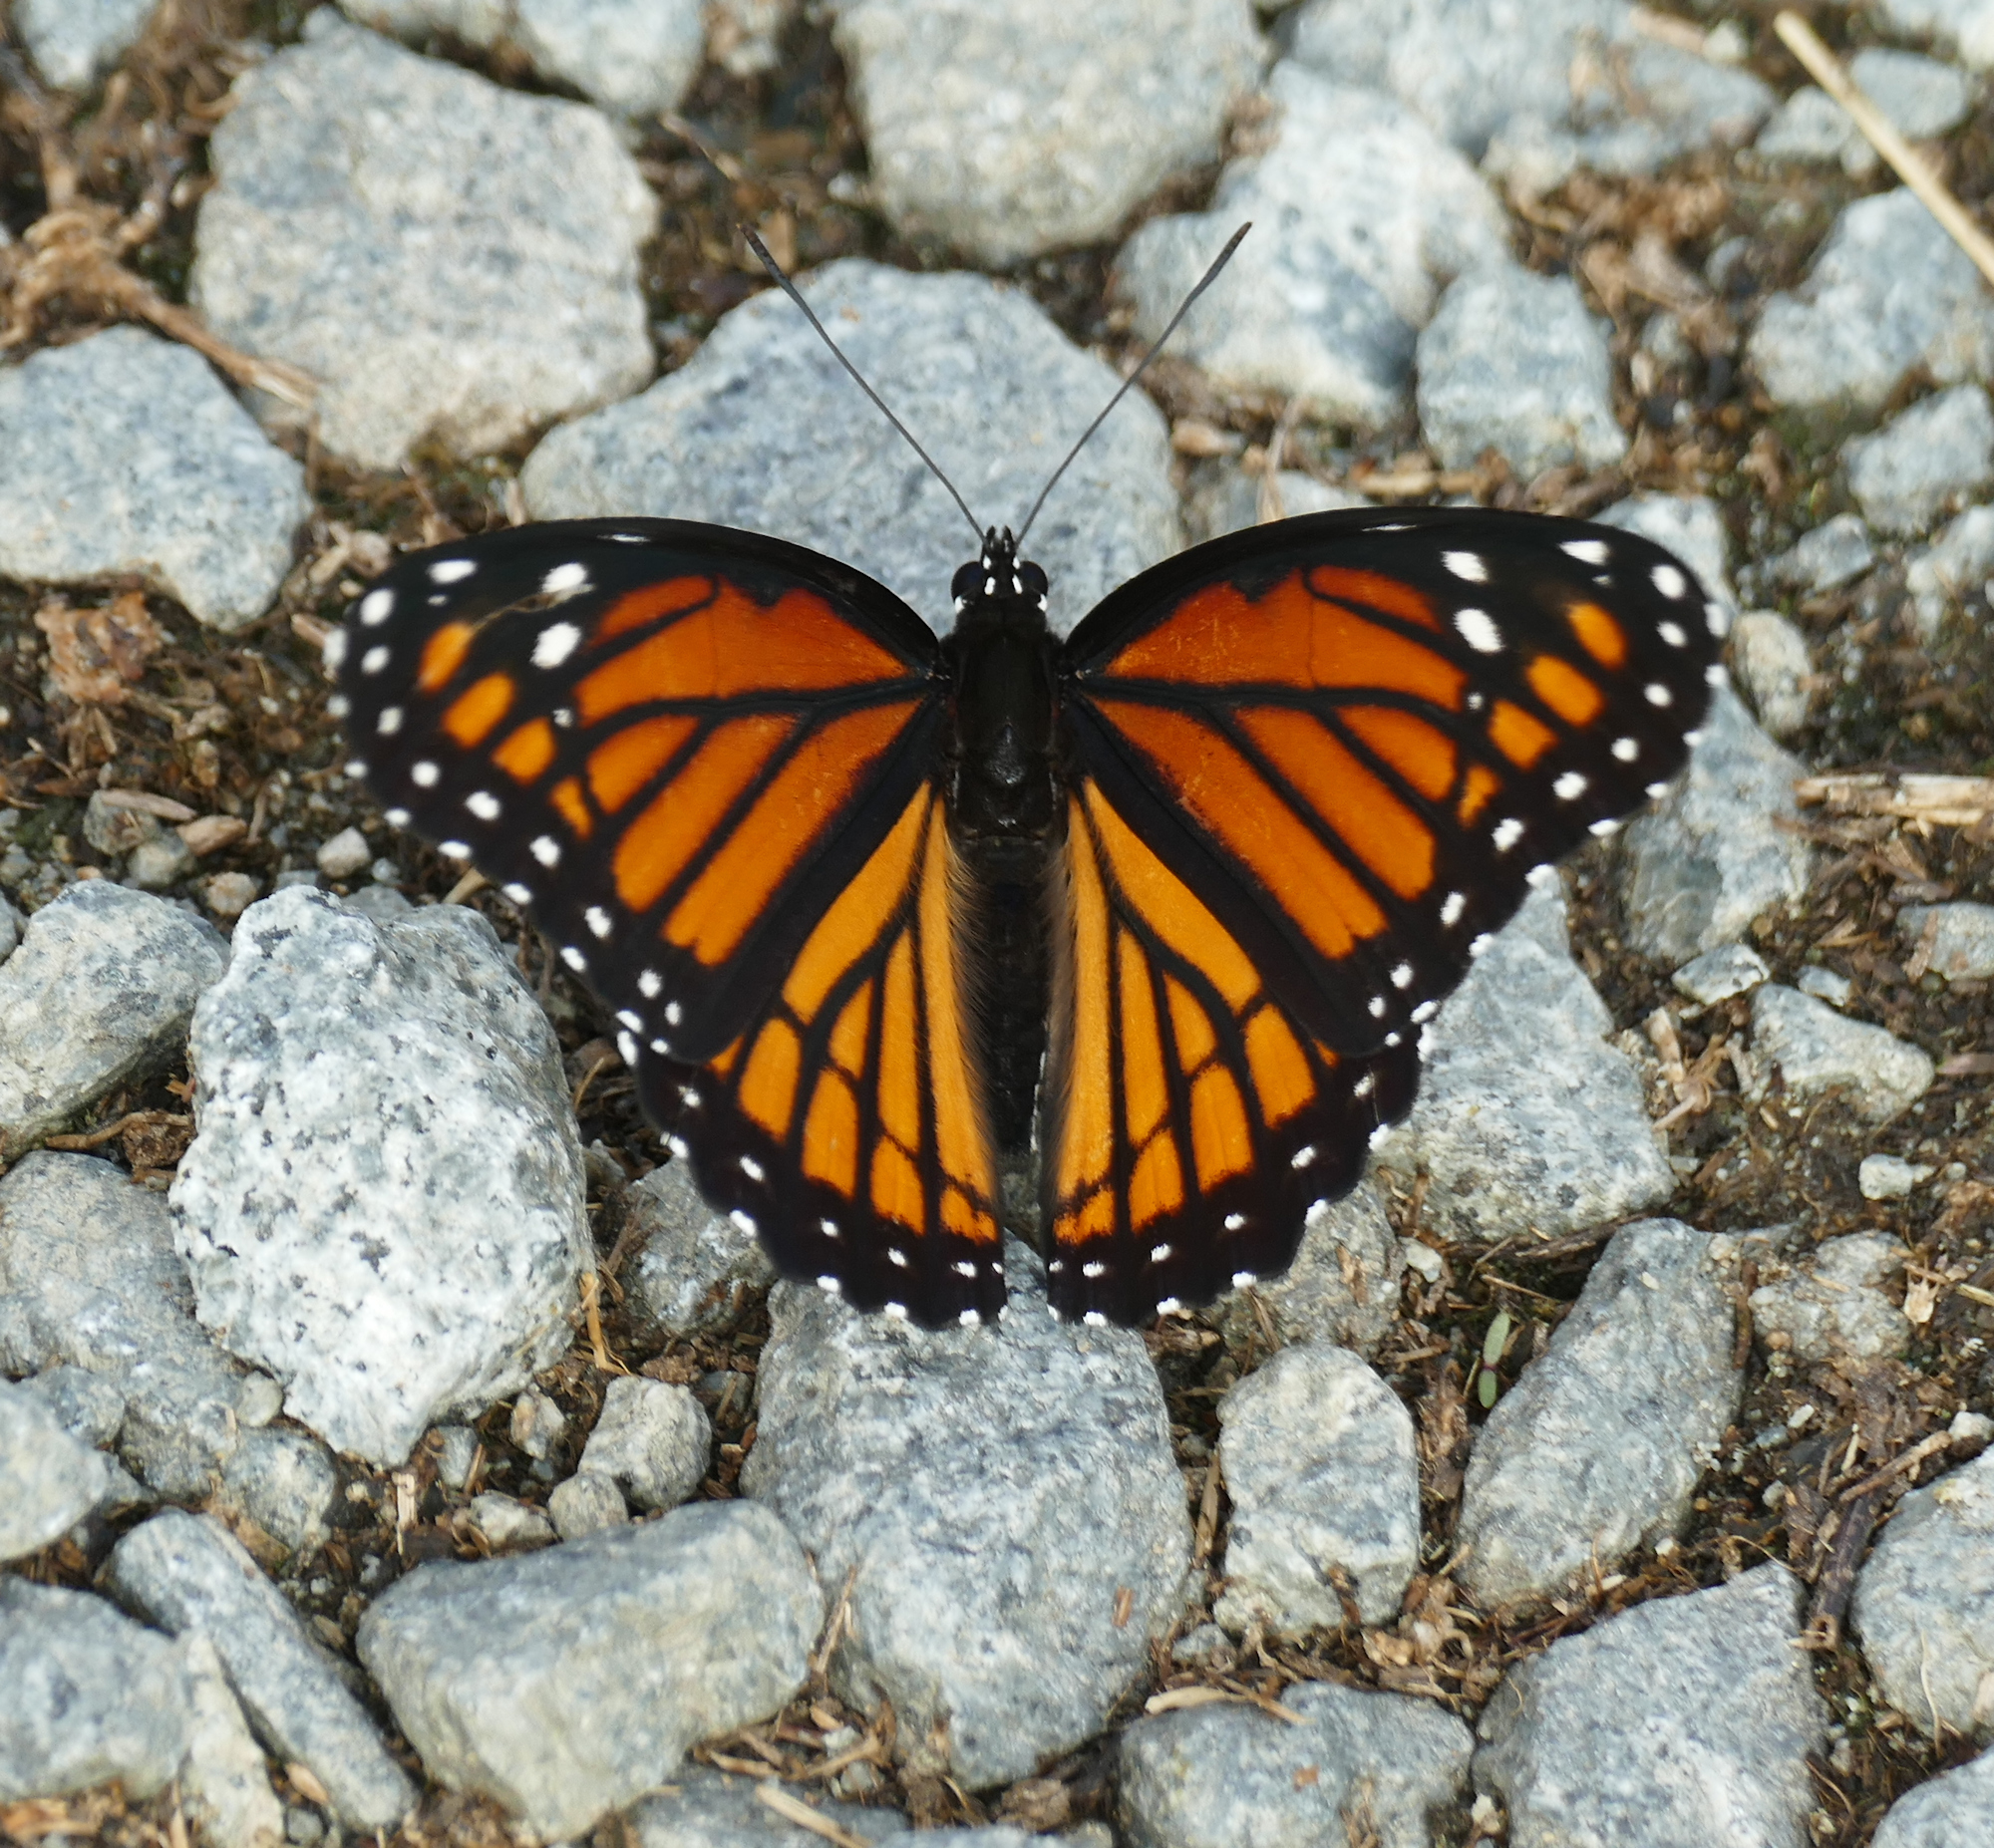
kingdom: Animalia
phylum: Arthropoda
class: Insecta
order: Lepidoptera
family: Nymphalidae
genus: Limenitis
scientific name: Limenitis archippus
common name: Viceroy
